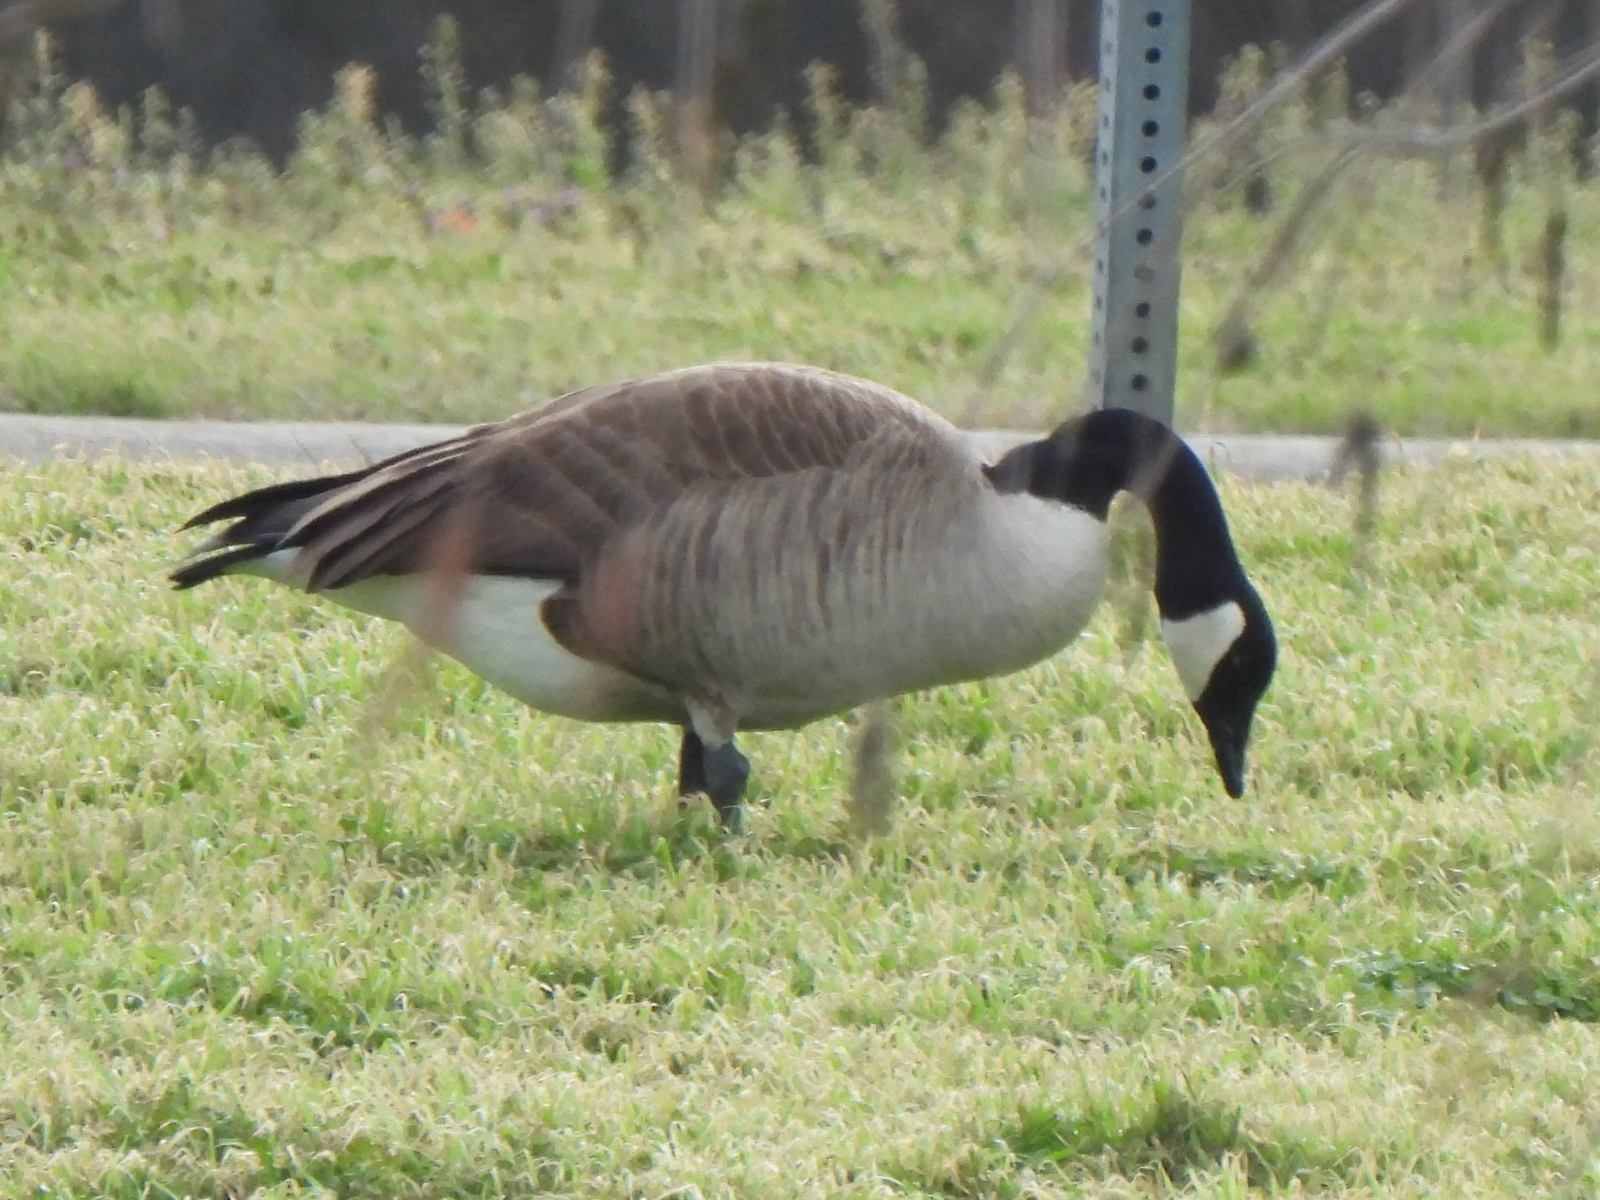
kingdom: Animalia
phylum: Chordata
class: Aves
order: Anseriformes
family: Anatidae
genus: Branta
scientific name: Branta canadensis
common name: Canada goose
